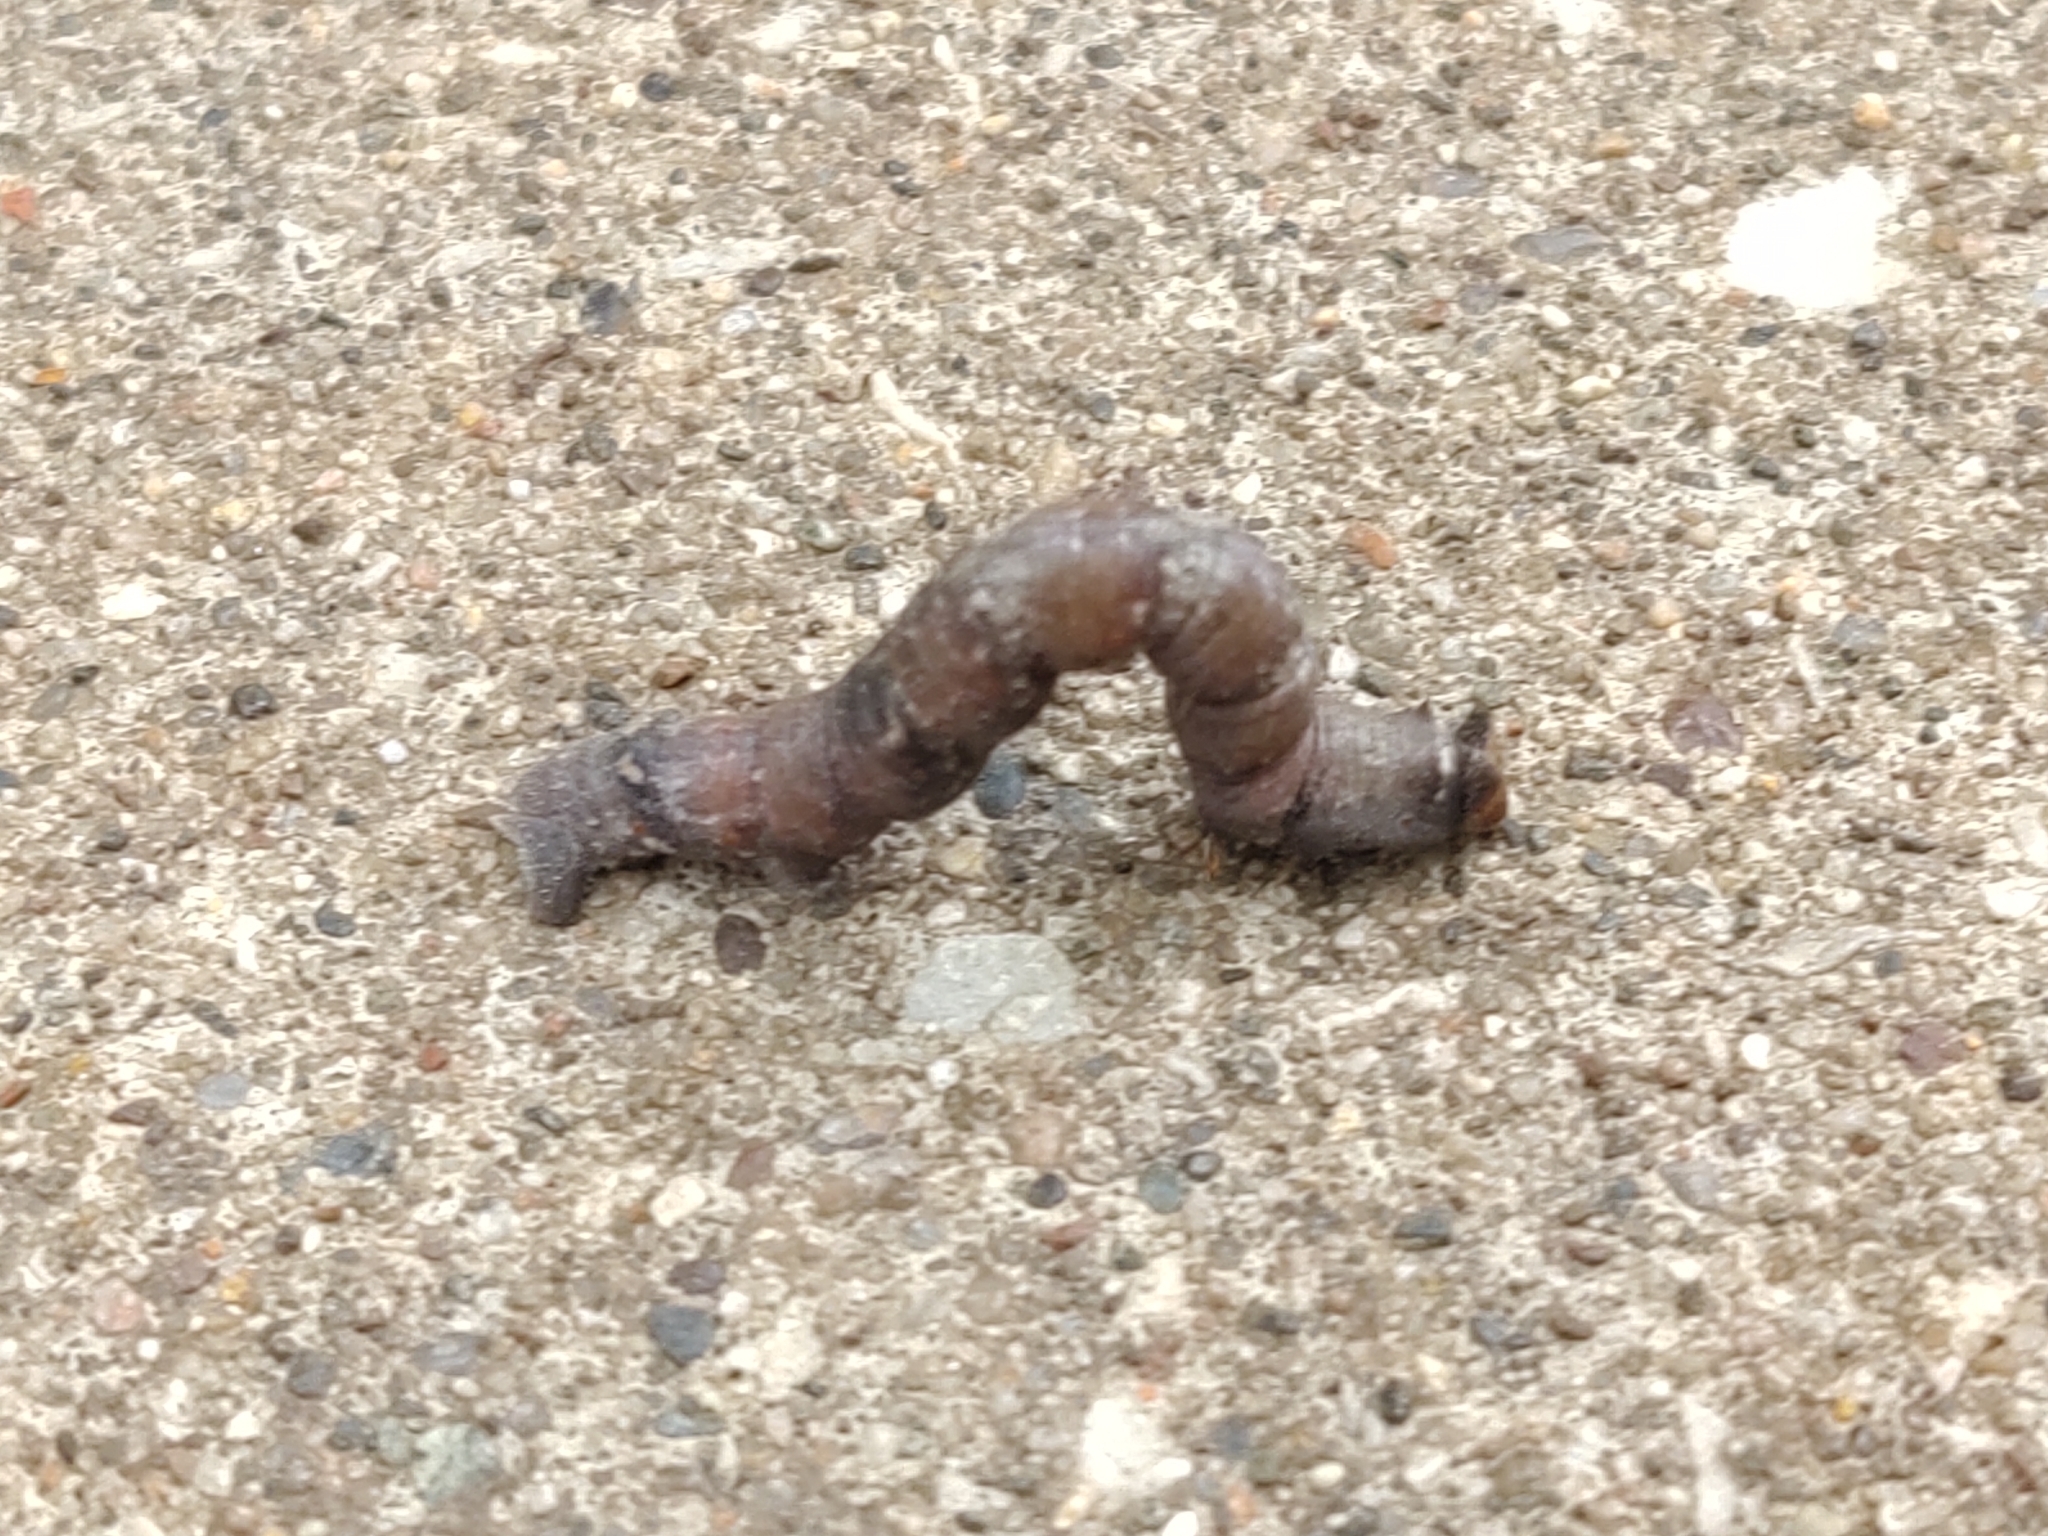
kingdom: Animalia
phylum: Arthropoda
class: Insecta
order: Lepidoptera
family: Geometridae
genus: Biston
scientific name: Biston betularia
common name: Peppered moth
